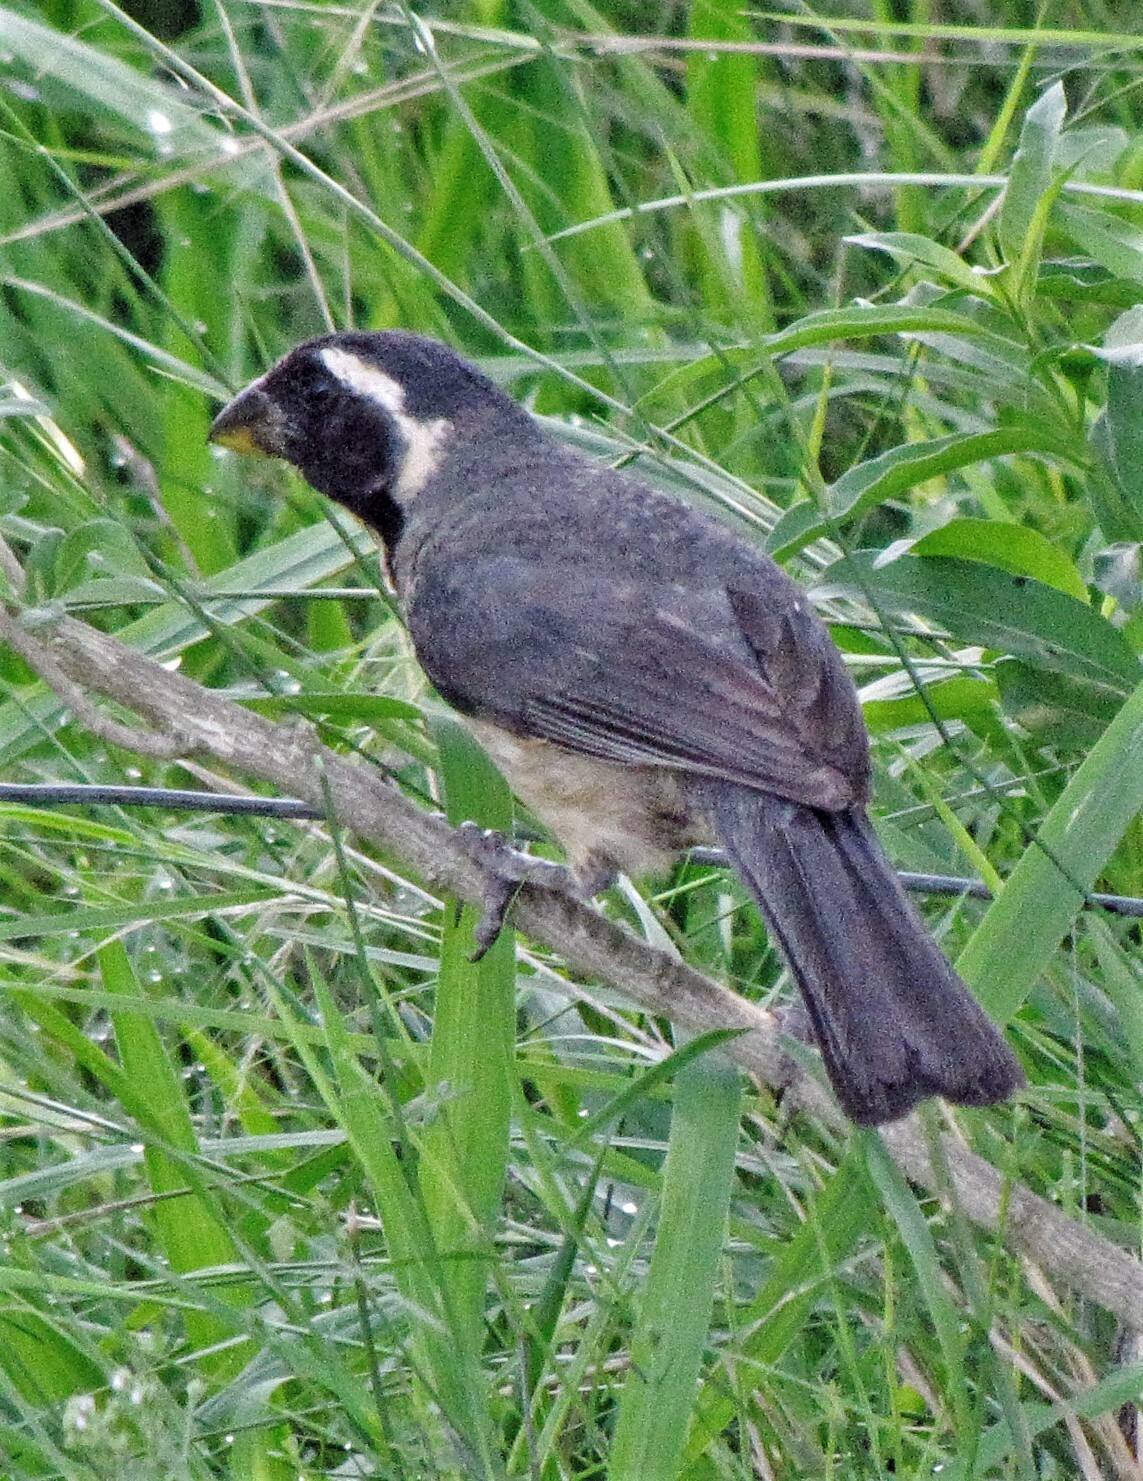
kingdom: Animalia
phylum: Chordata
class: Aves
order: Passeriformes
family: Thraupidae
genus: Saltator
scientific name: Saltator aurantiirostris
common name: Golden-billed saltator
